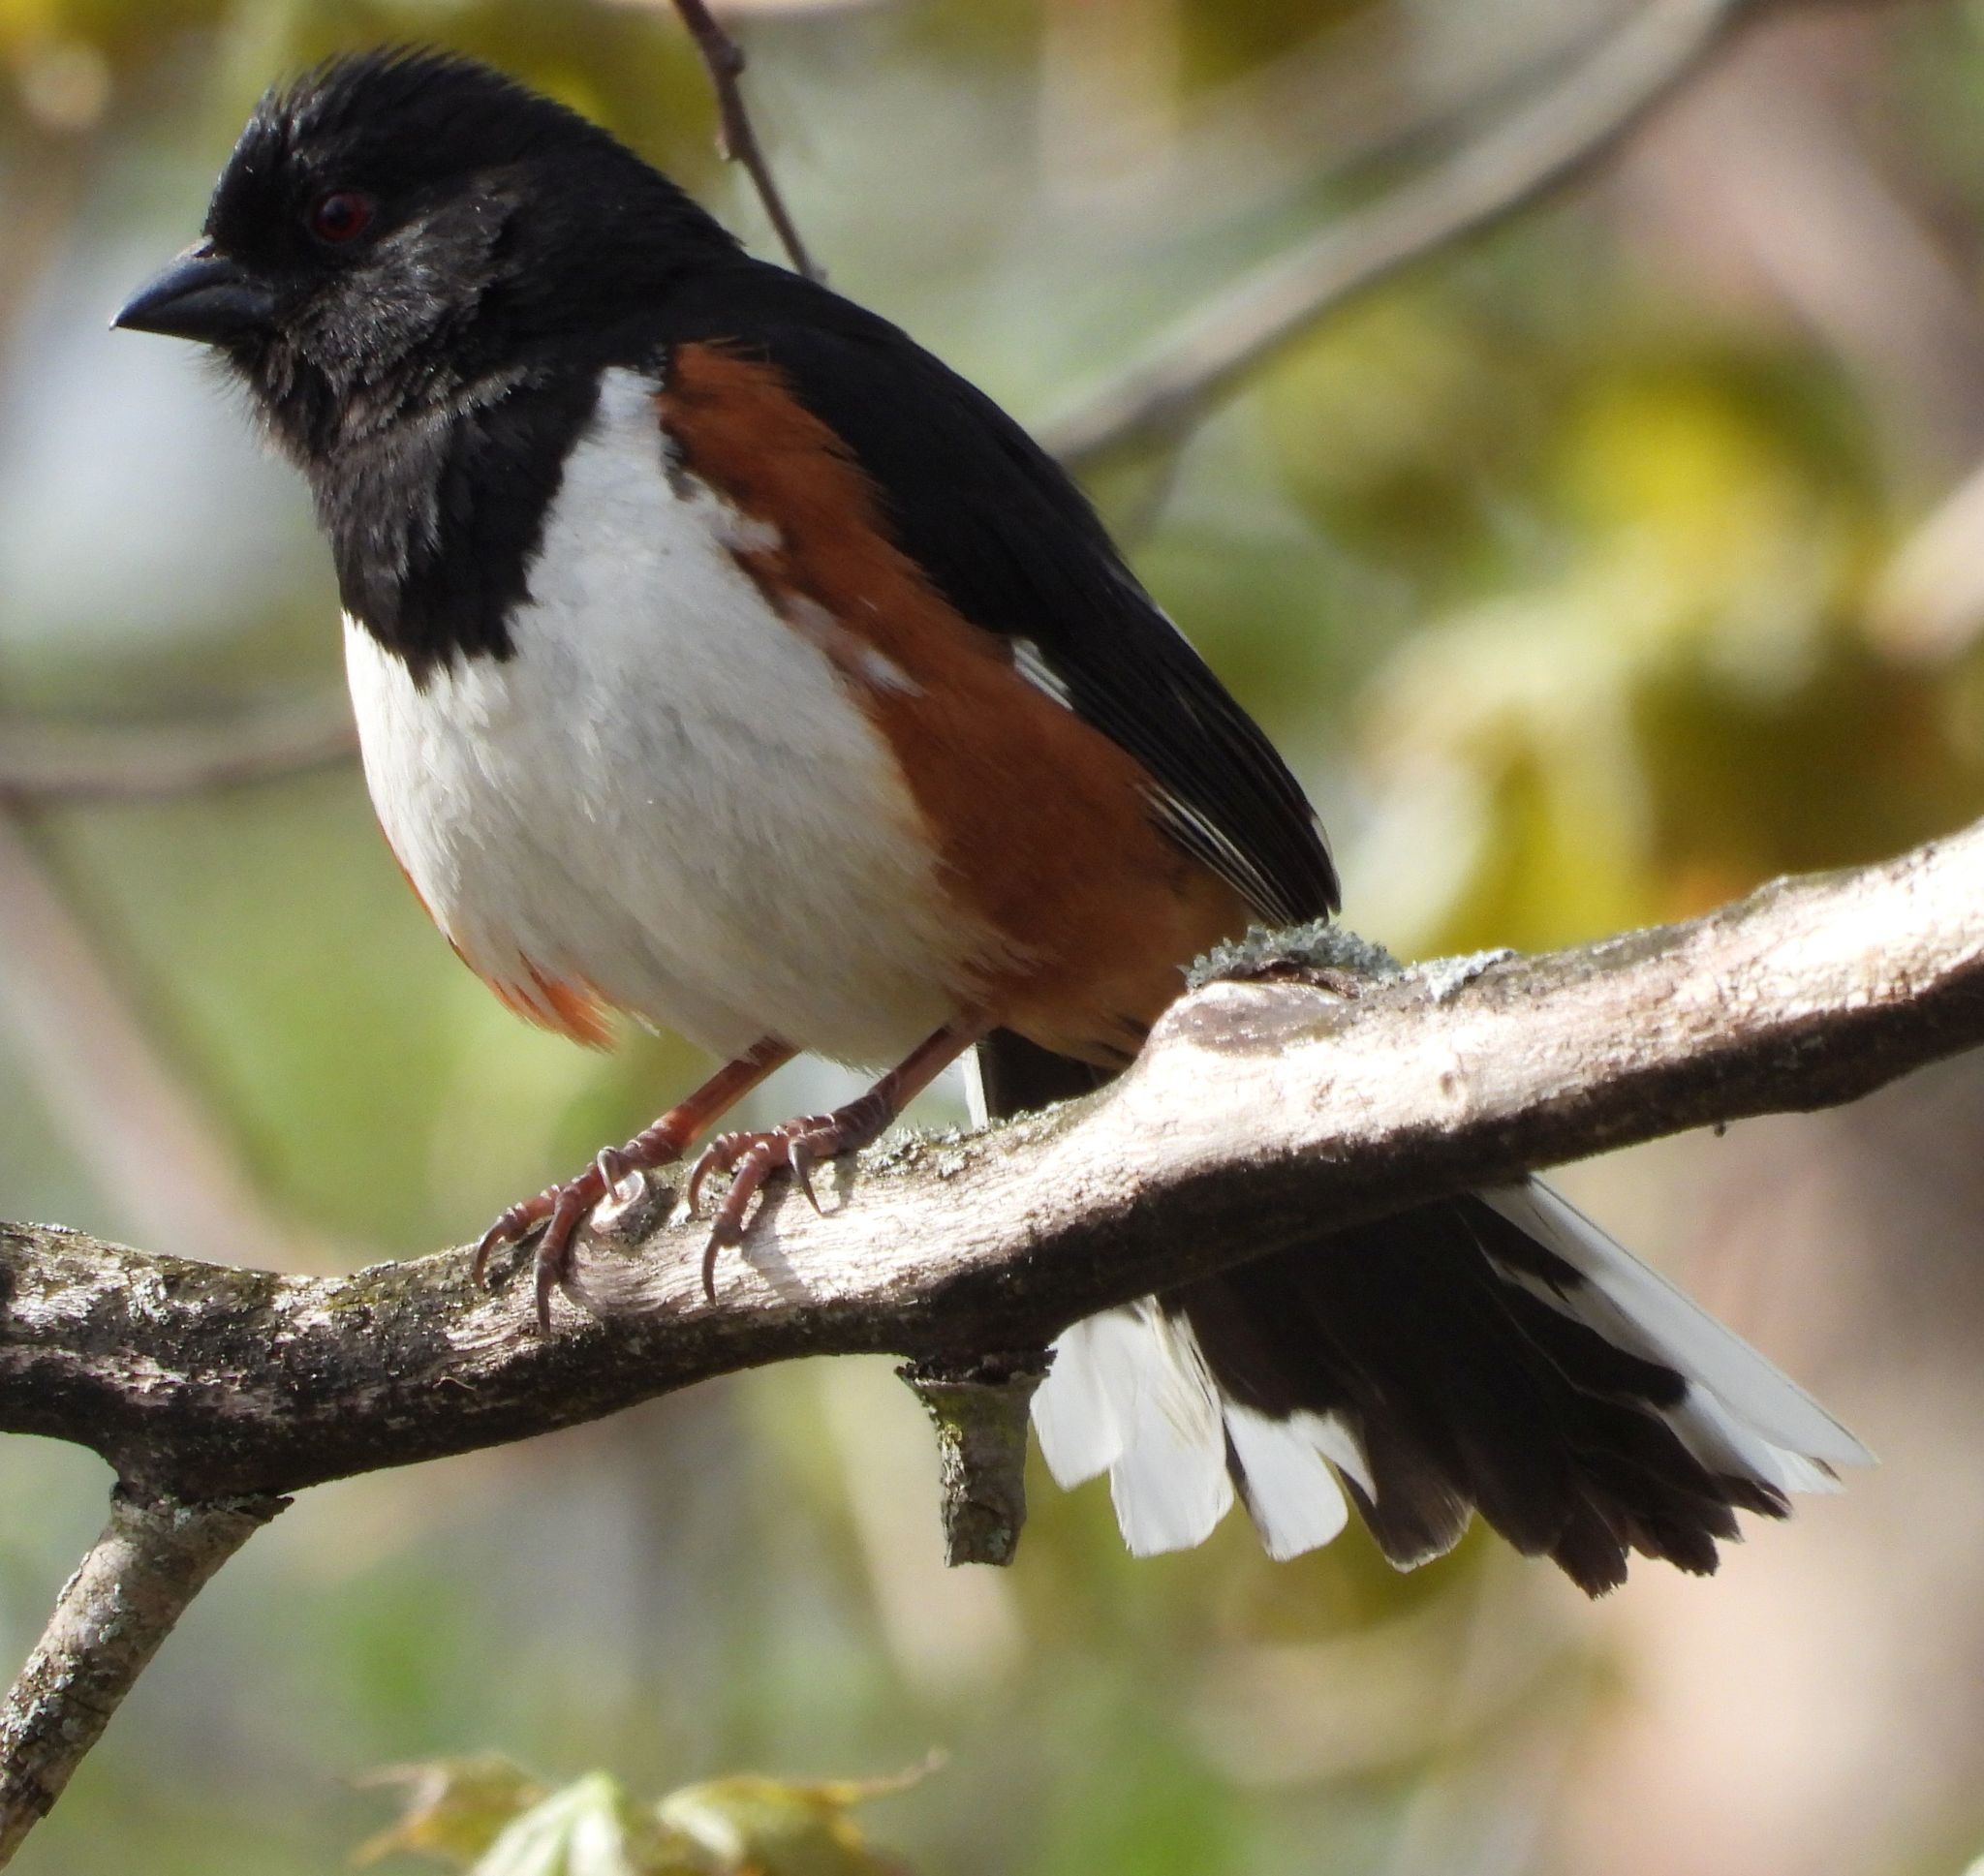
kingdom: Animalia
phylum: Chordata
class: Aves
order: Passeriformes
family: Passerellidae
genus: Pipilo
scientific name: Pipilo erythrophthalmus
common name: Eastern towhee
